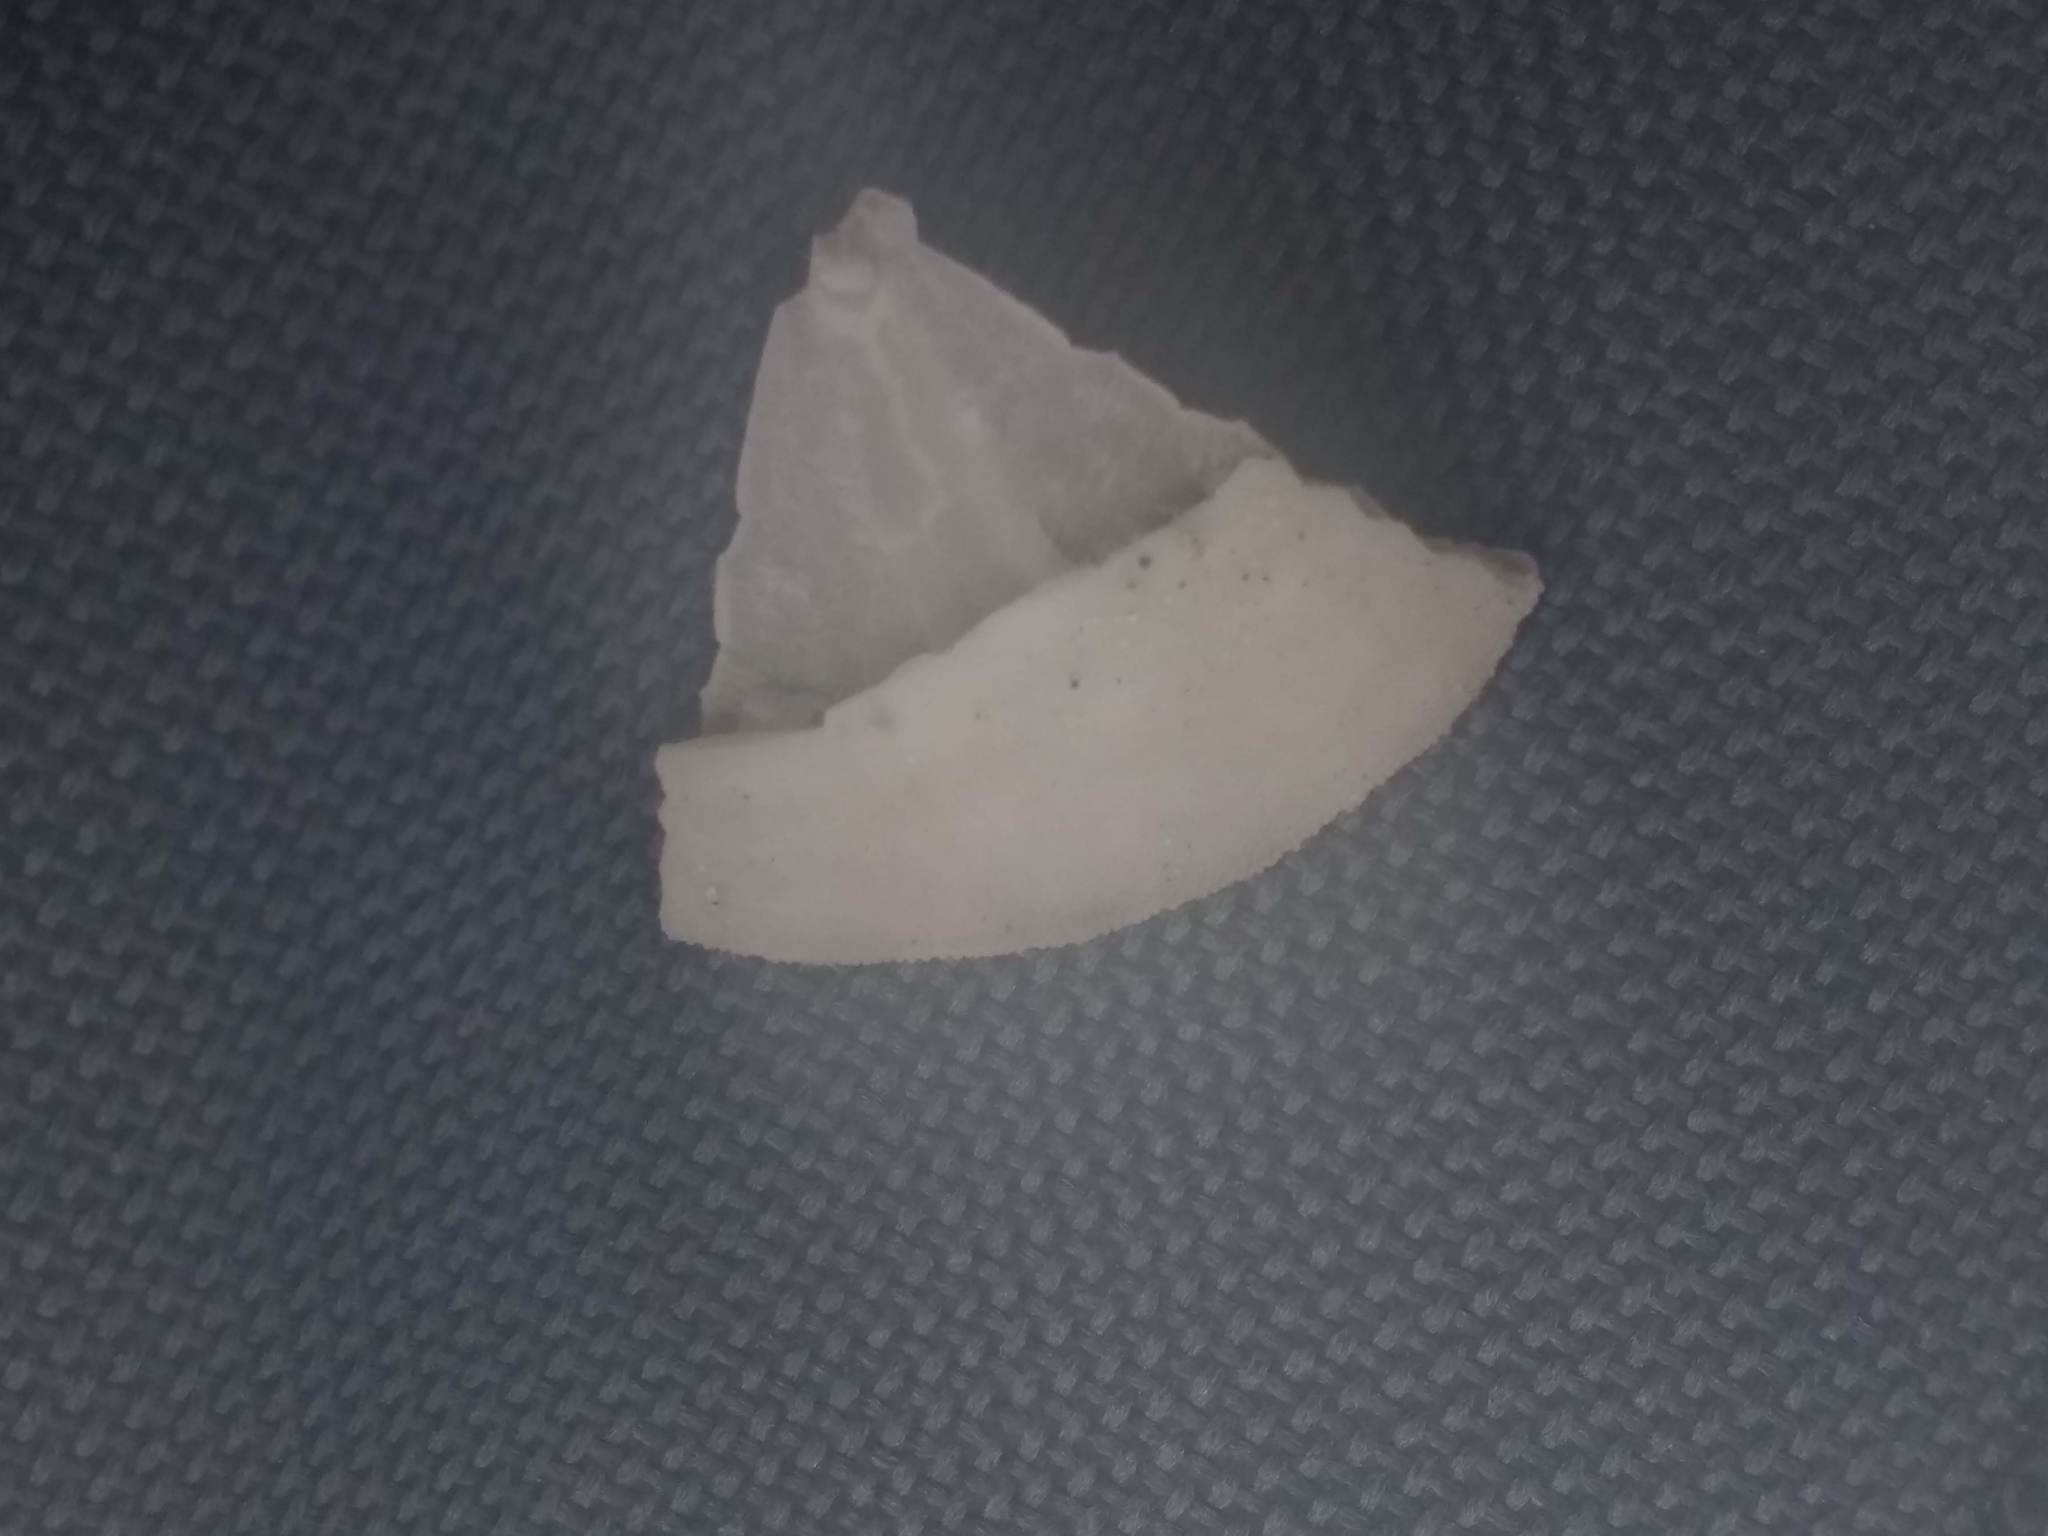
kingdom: Animalia
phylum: Echinodermata
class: Echinoidea
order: Echinolampadacea
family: Dendrasteridae
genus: Dendraster
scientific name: Dendraster excentricus
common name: Eccentric sand dollar sea urchin
